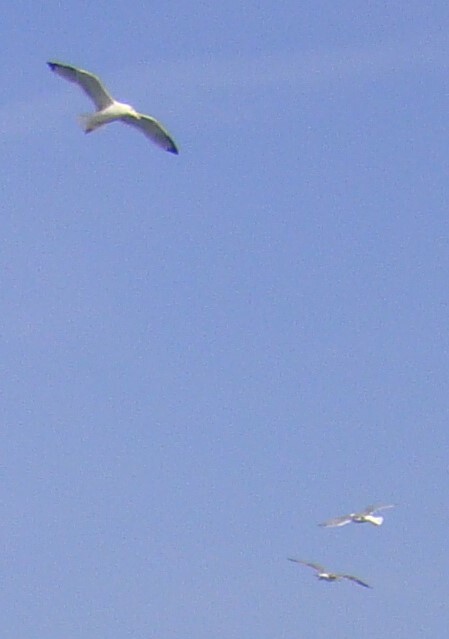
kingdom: Animalia
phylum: Chordata
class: Aves
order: Charadriiformes
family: Laridae
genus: Larus
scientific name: Larus michahellis
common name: Yellow-legged gull
